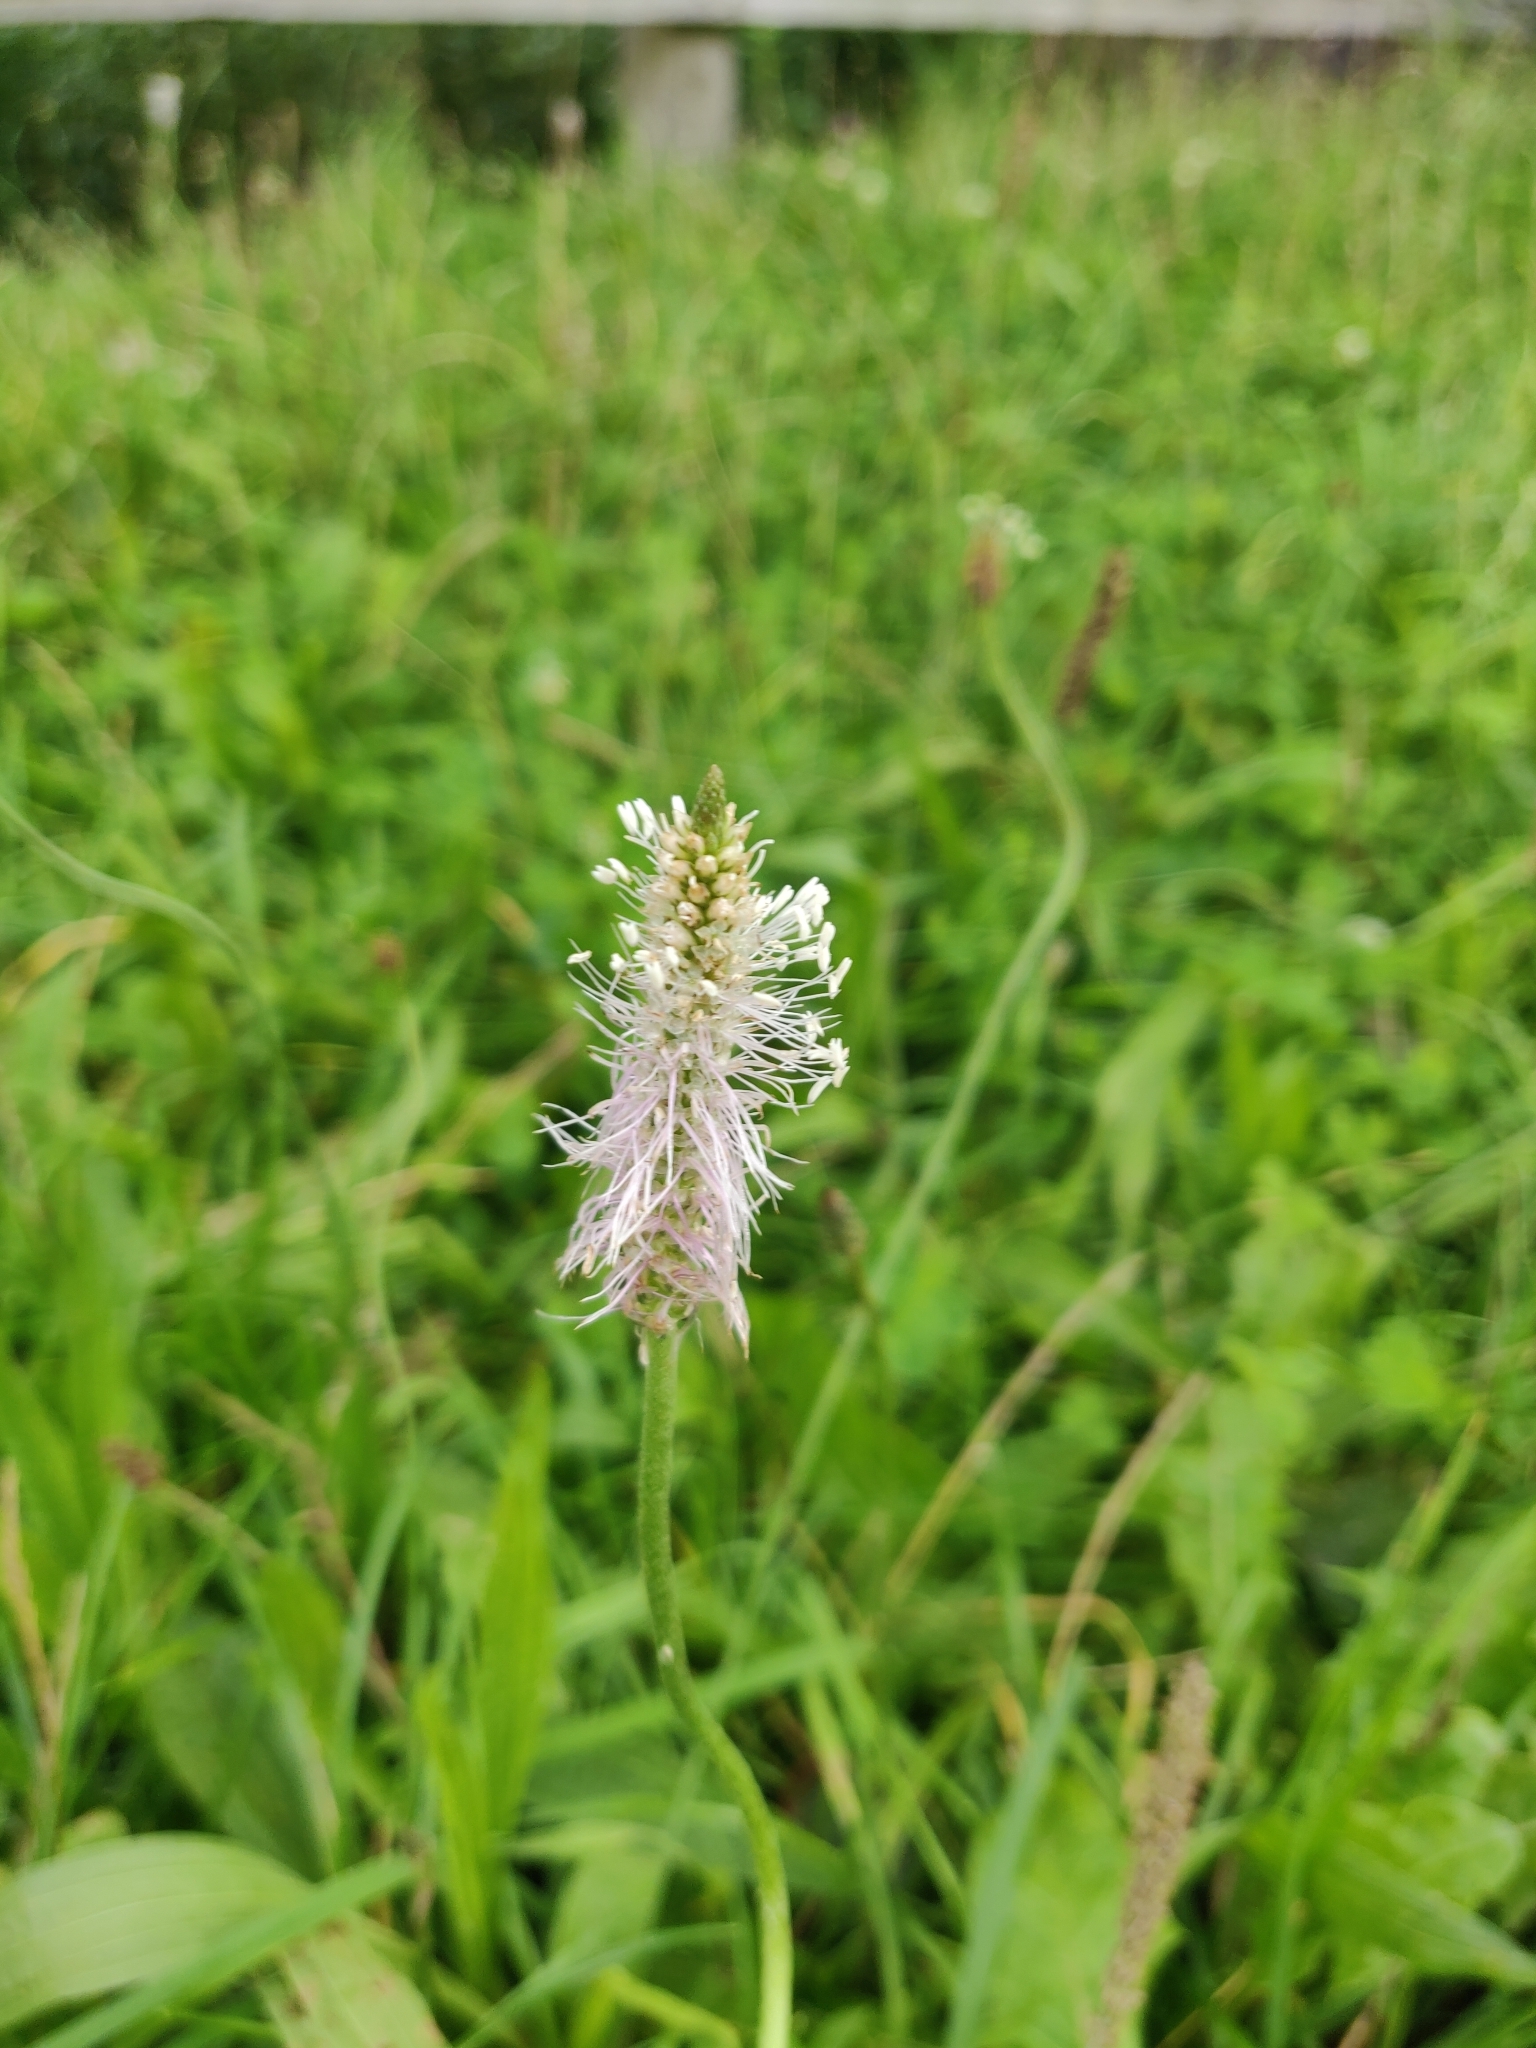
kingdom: Plantae
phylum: Tracheophyta
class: Magnoliopsida
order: Lamiales
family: Plantaginaceae
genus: Plantago
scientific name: Plantago media
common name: Hoary plantain
